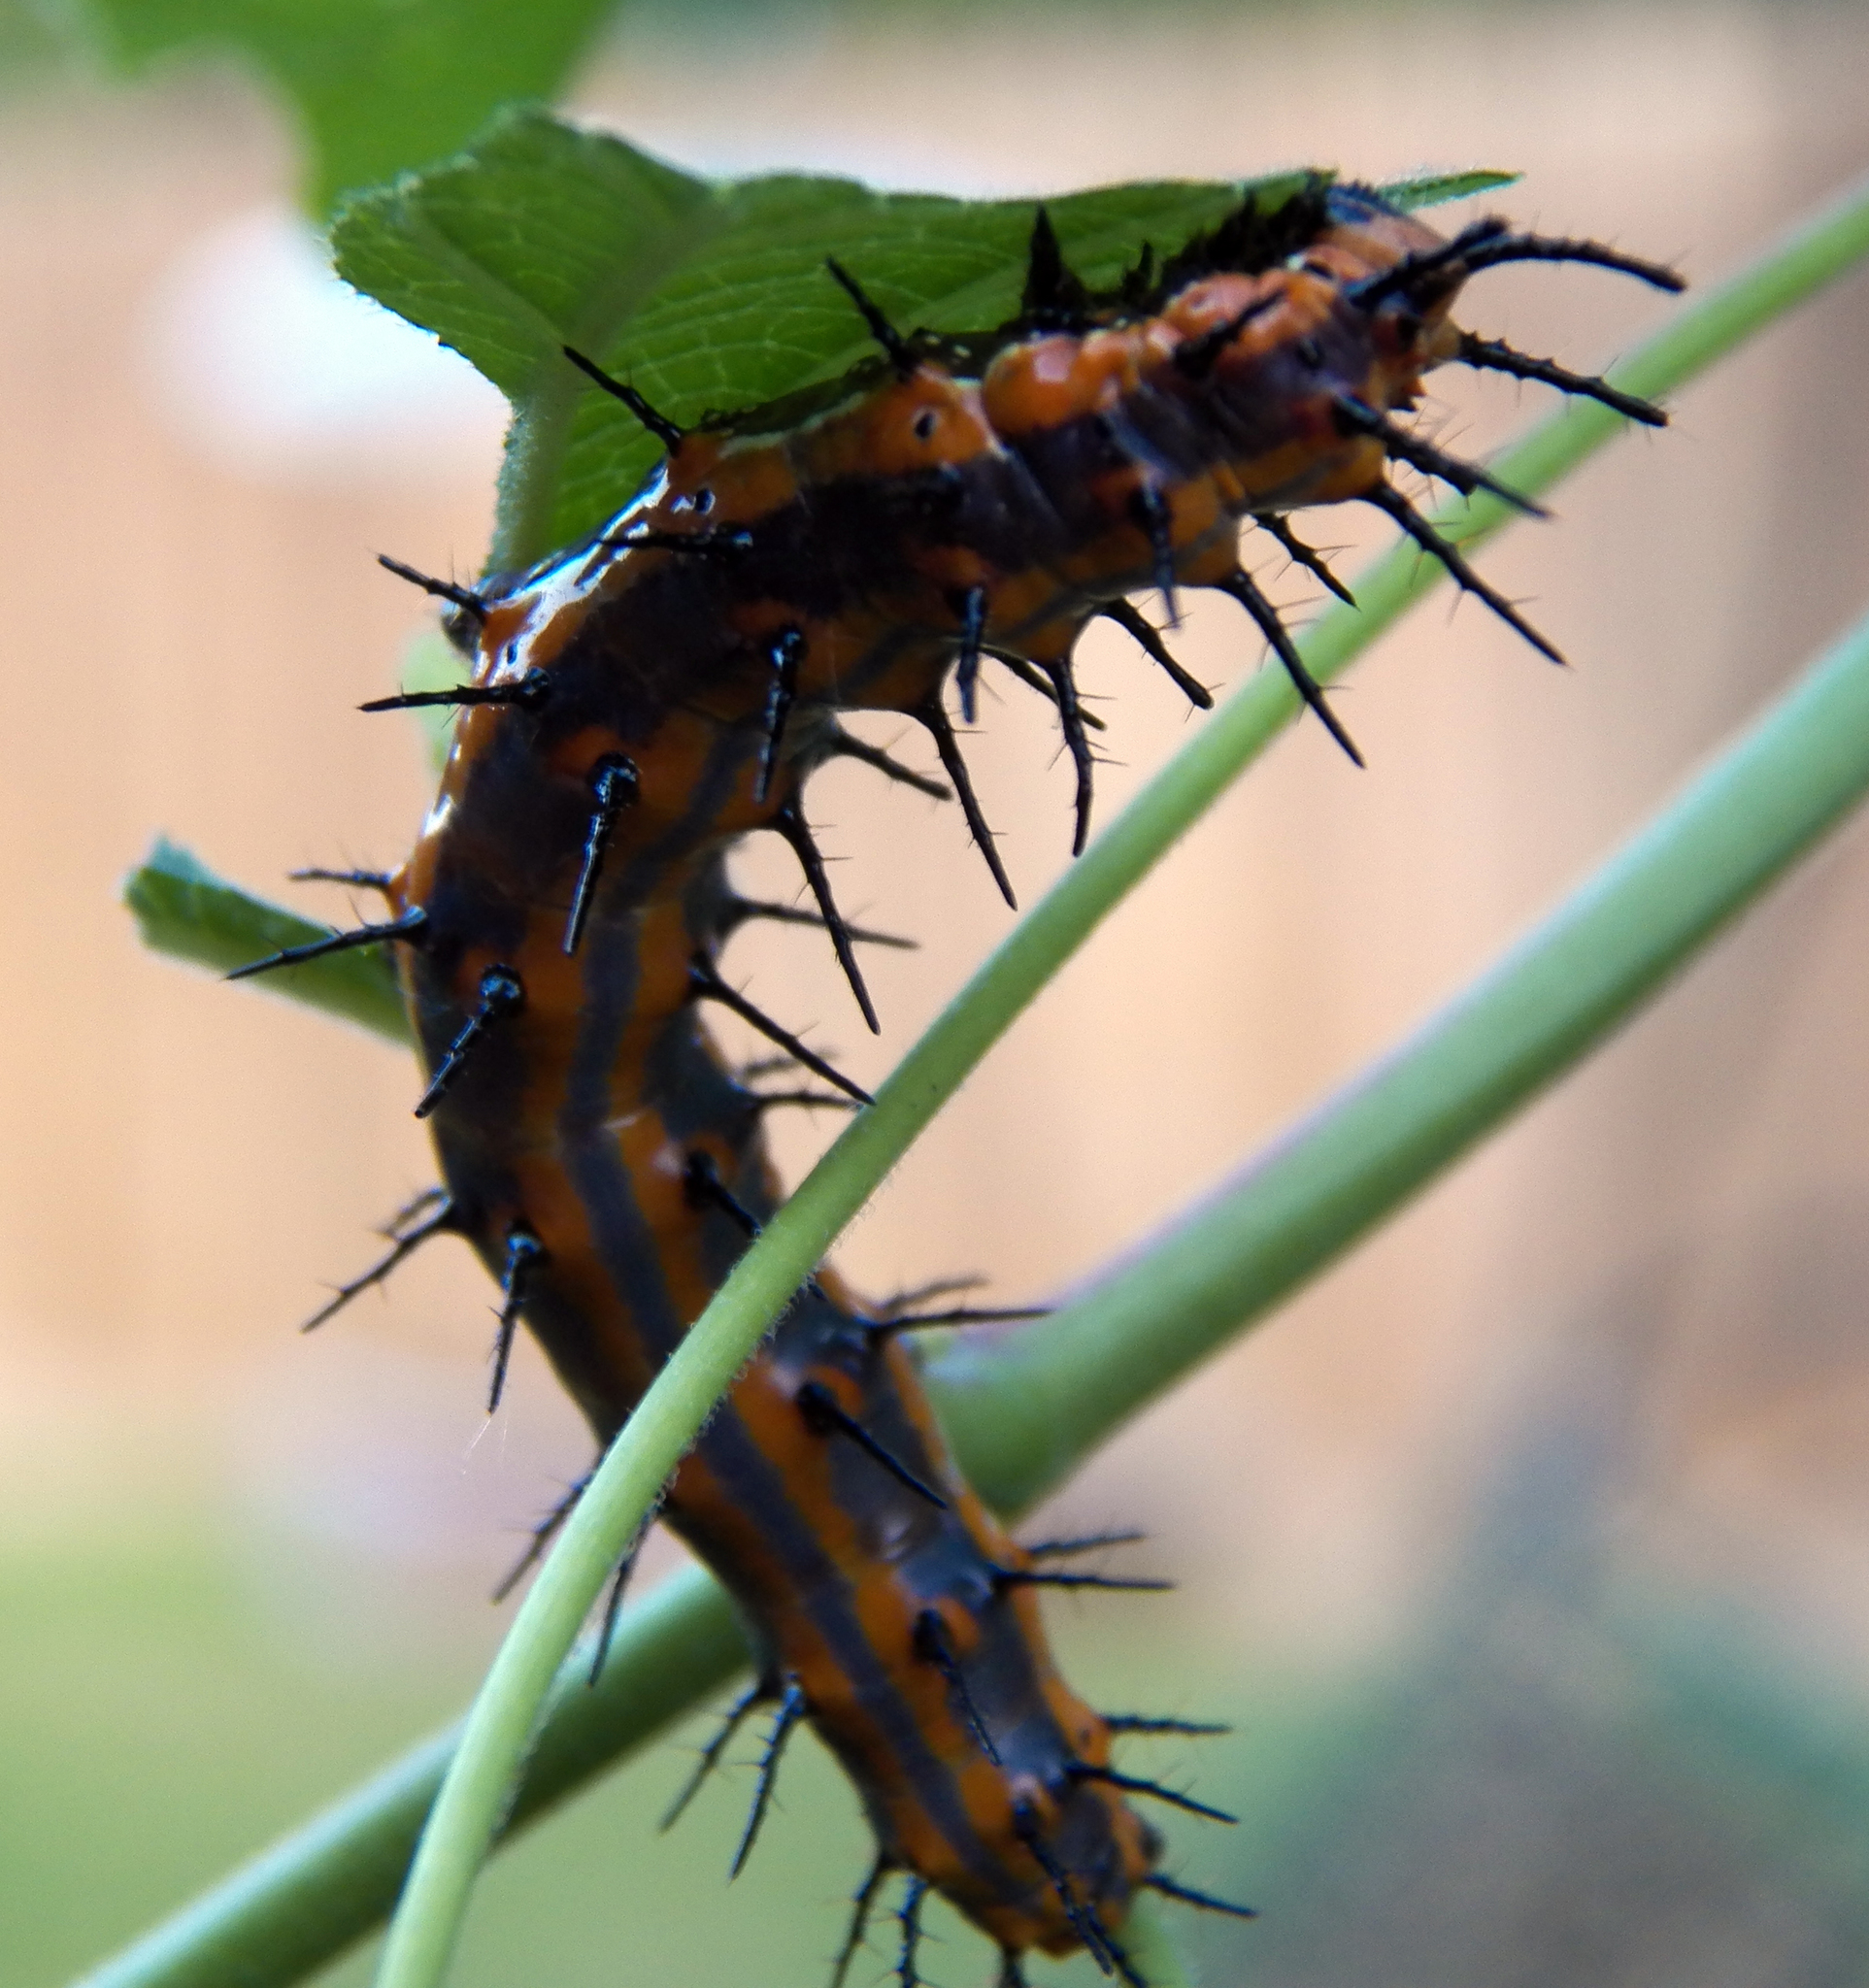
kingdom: Animalia
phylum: Arthropoda
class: Insecta
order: Lepidoptera
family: Nymphalidae
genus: Dione
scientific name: Dione vanillae
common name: Gulf fritillary
